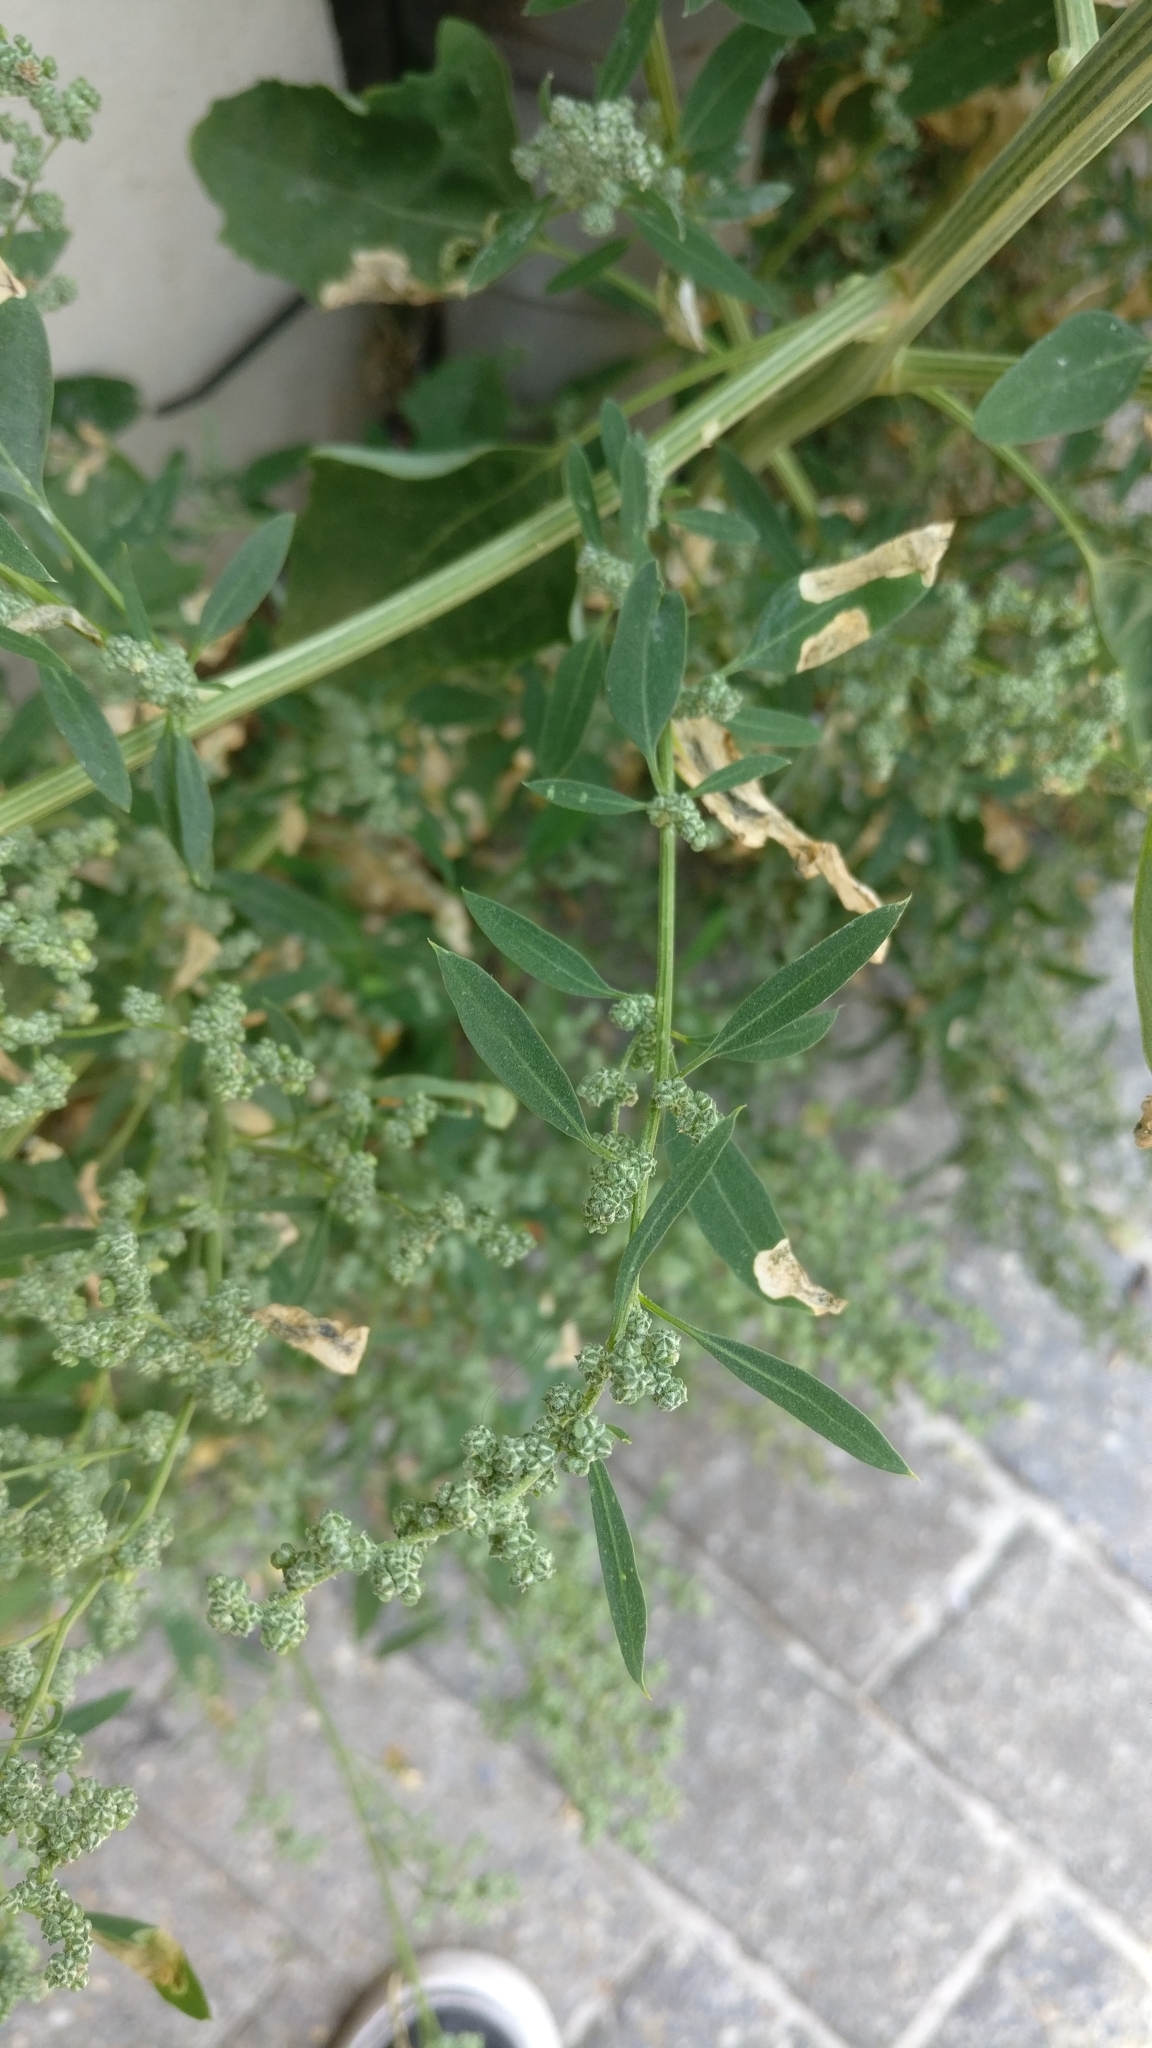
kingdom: Plantae
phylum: Tracheophyta
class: Magnoliopsida
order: Caryophyllales
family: Amaranthaceae
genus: Chenopodium
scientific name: Chenopodium album
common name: Fat-hen
